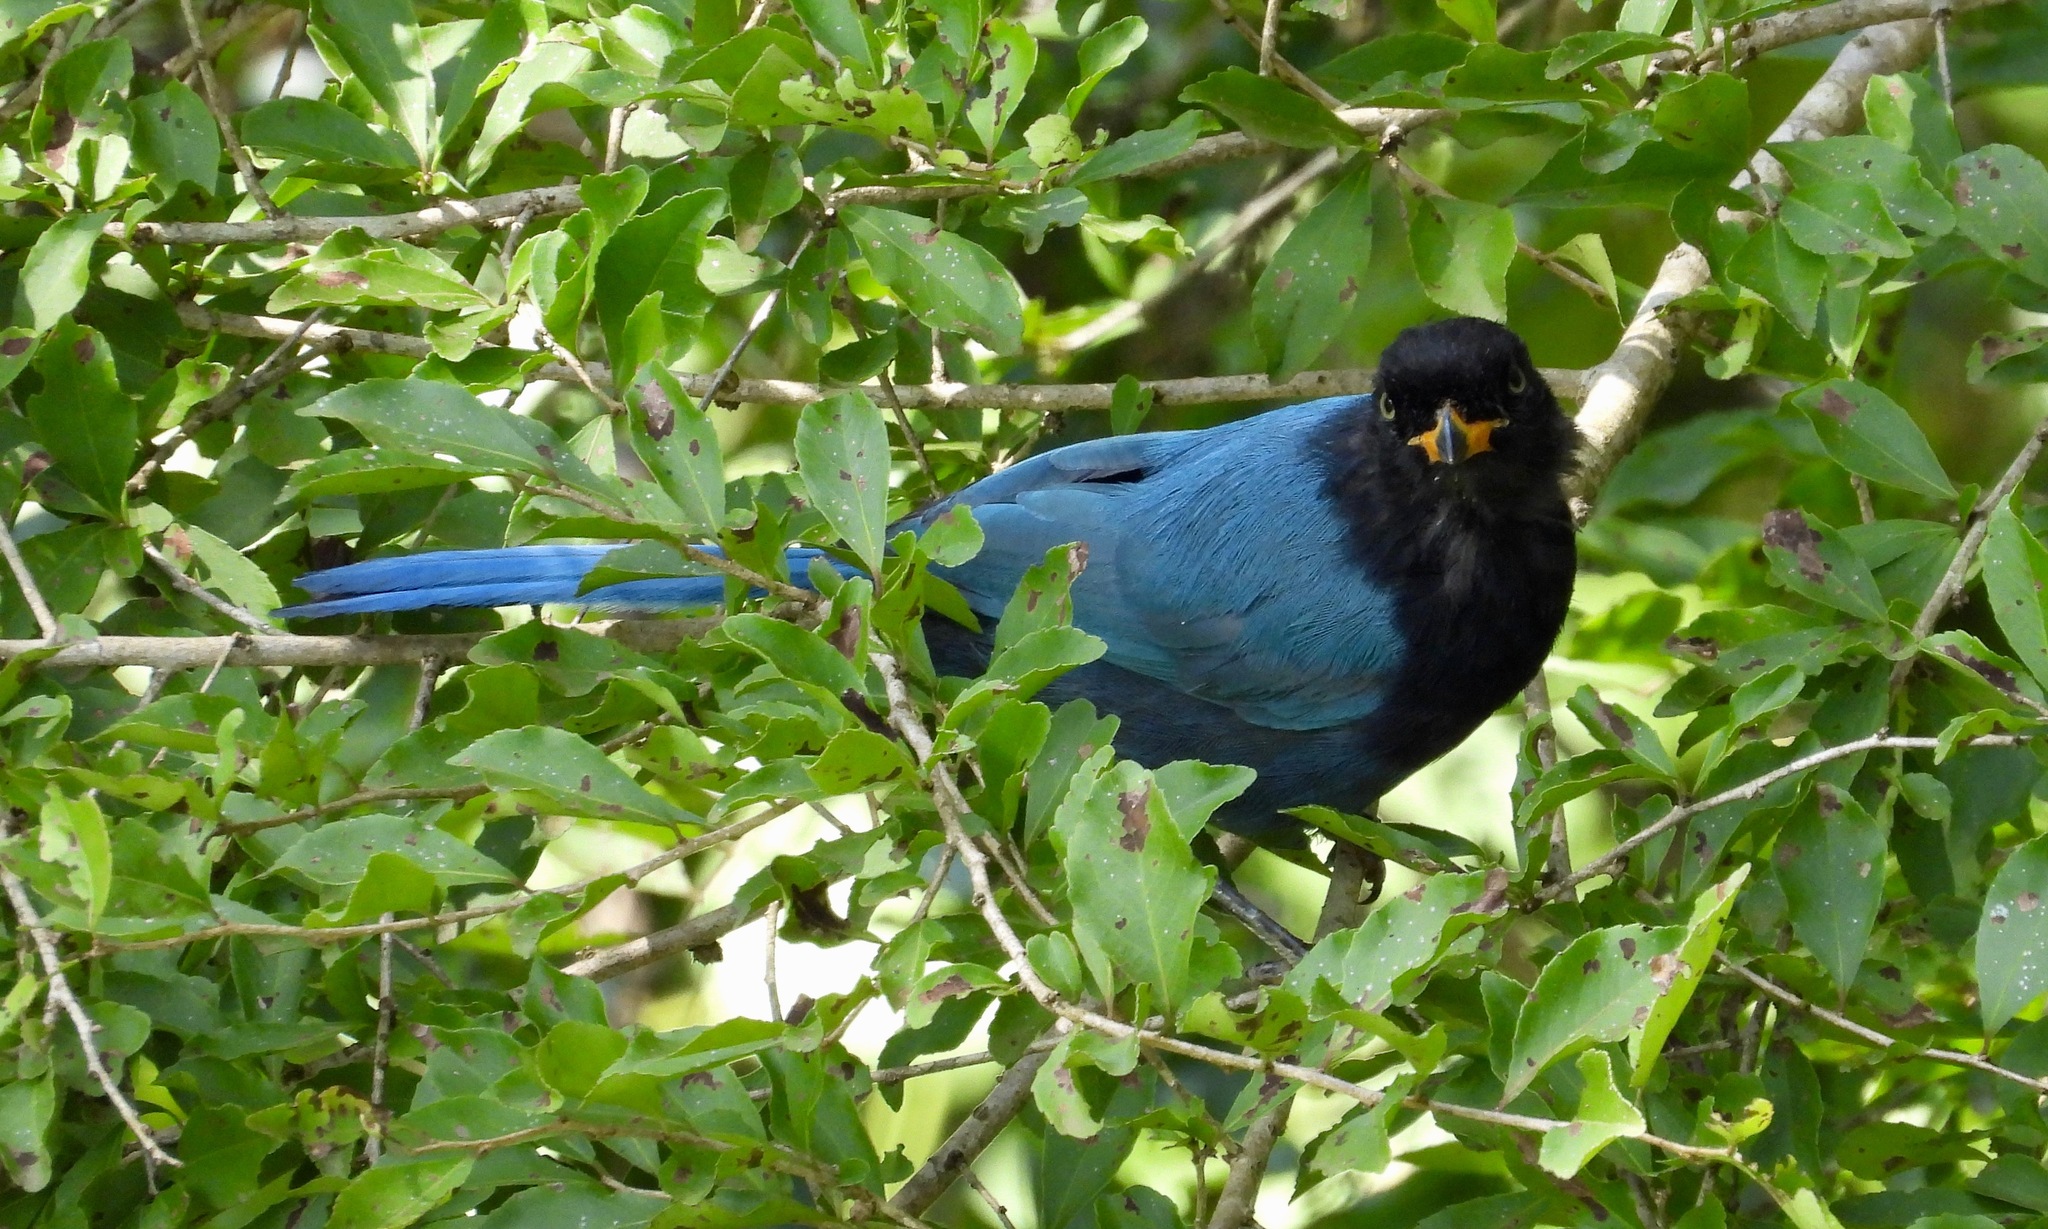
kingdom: Animalia
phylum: Chordata
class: Aves
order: Passeriformes
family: Corvidae
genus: Cyanocorax
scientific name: Cyanocorax melanocyaneus
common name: Bushy-crested jay
